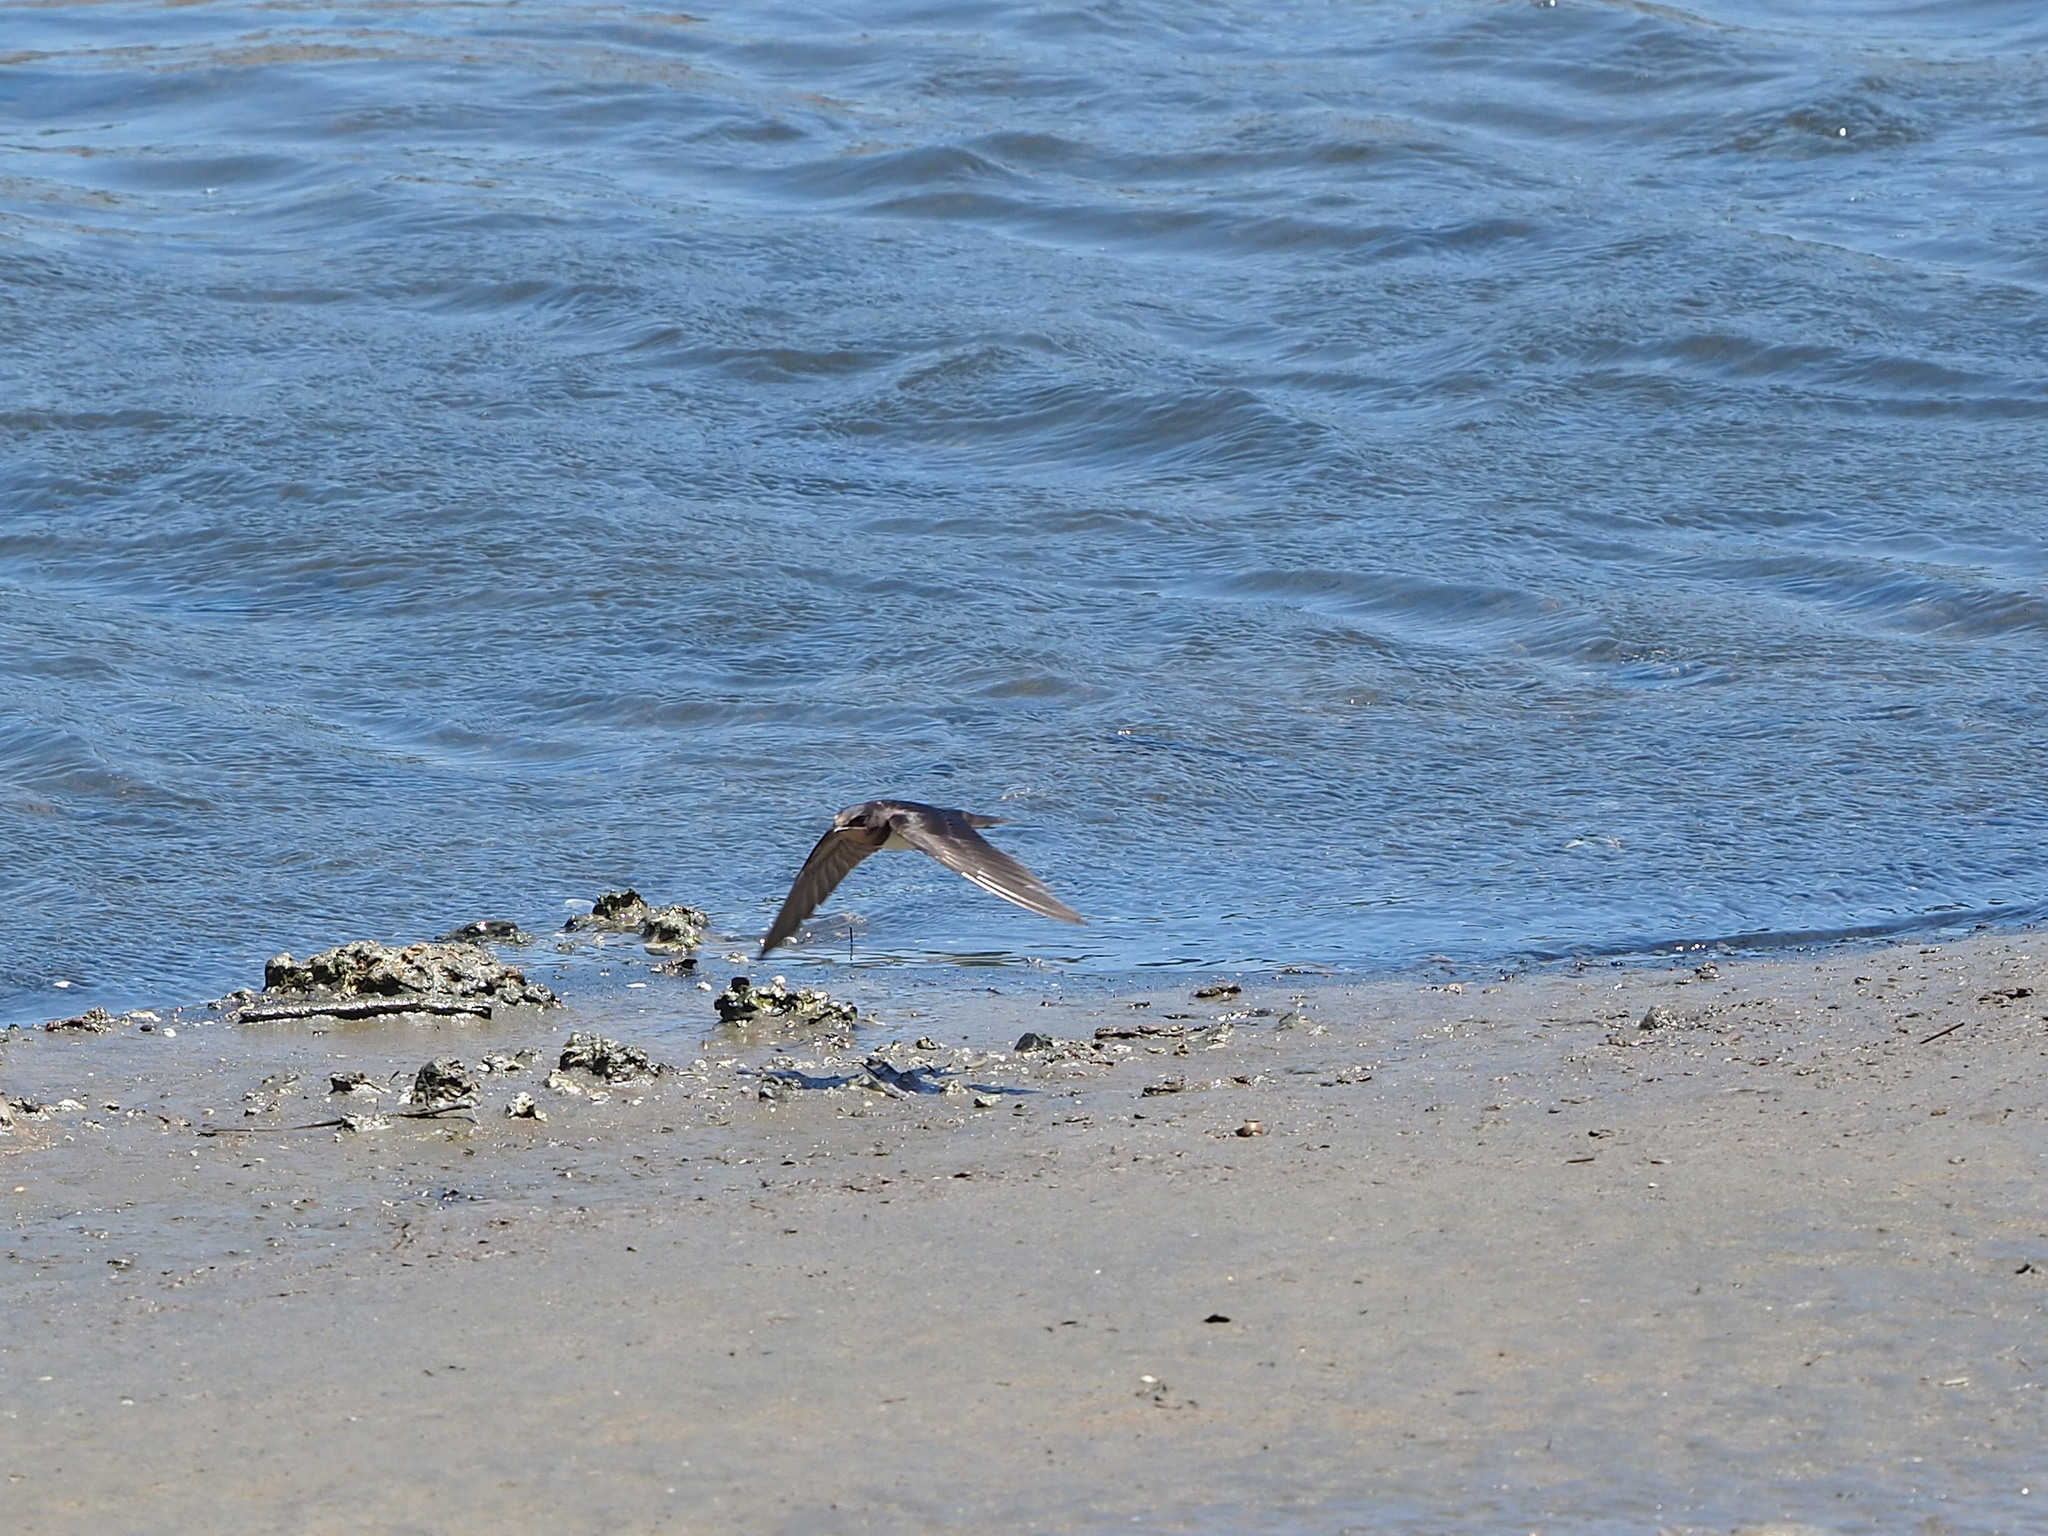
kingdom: Animalia
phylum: Chordata
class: Aves
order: Passeriformes
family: Hirundinidae
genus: Hirundo
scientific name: Hirundo rustica
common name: Barn swallow
